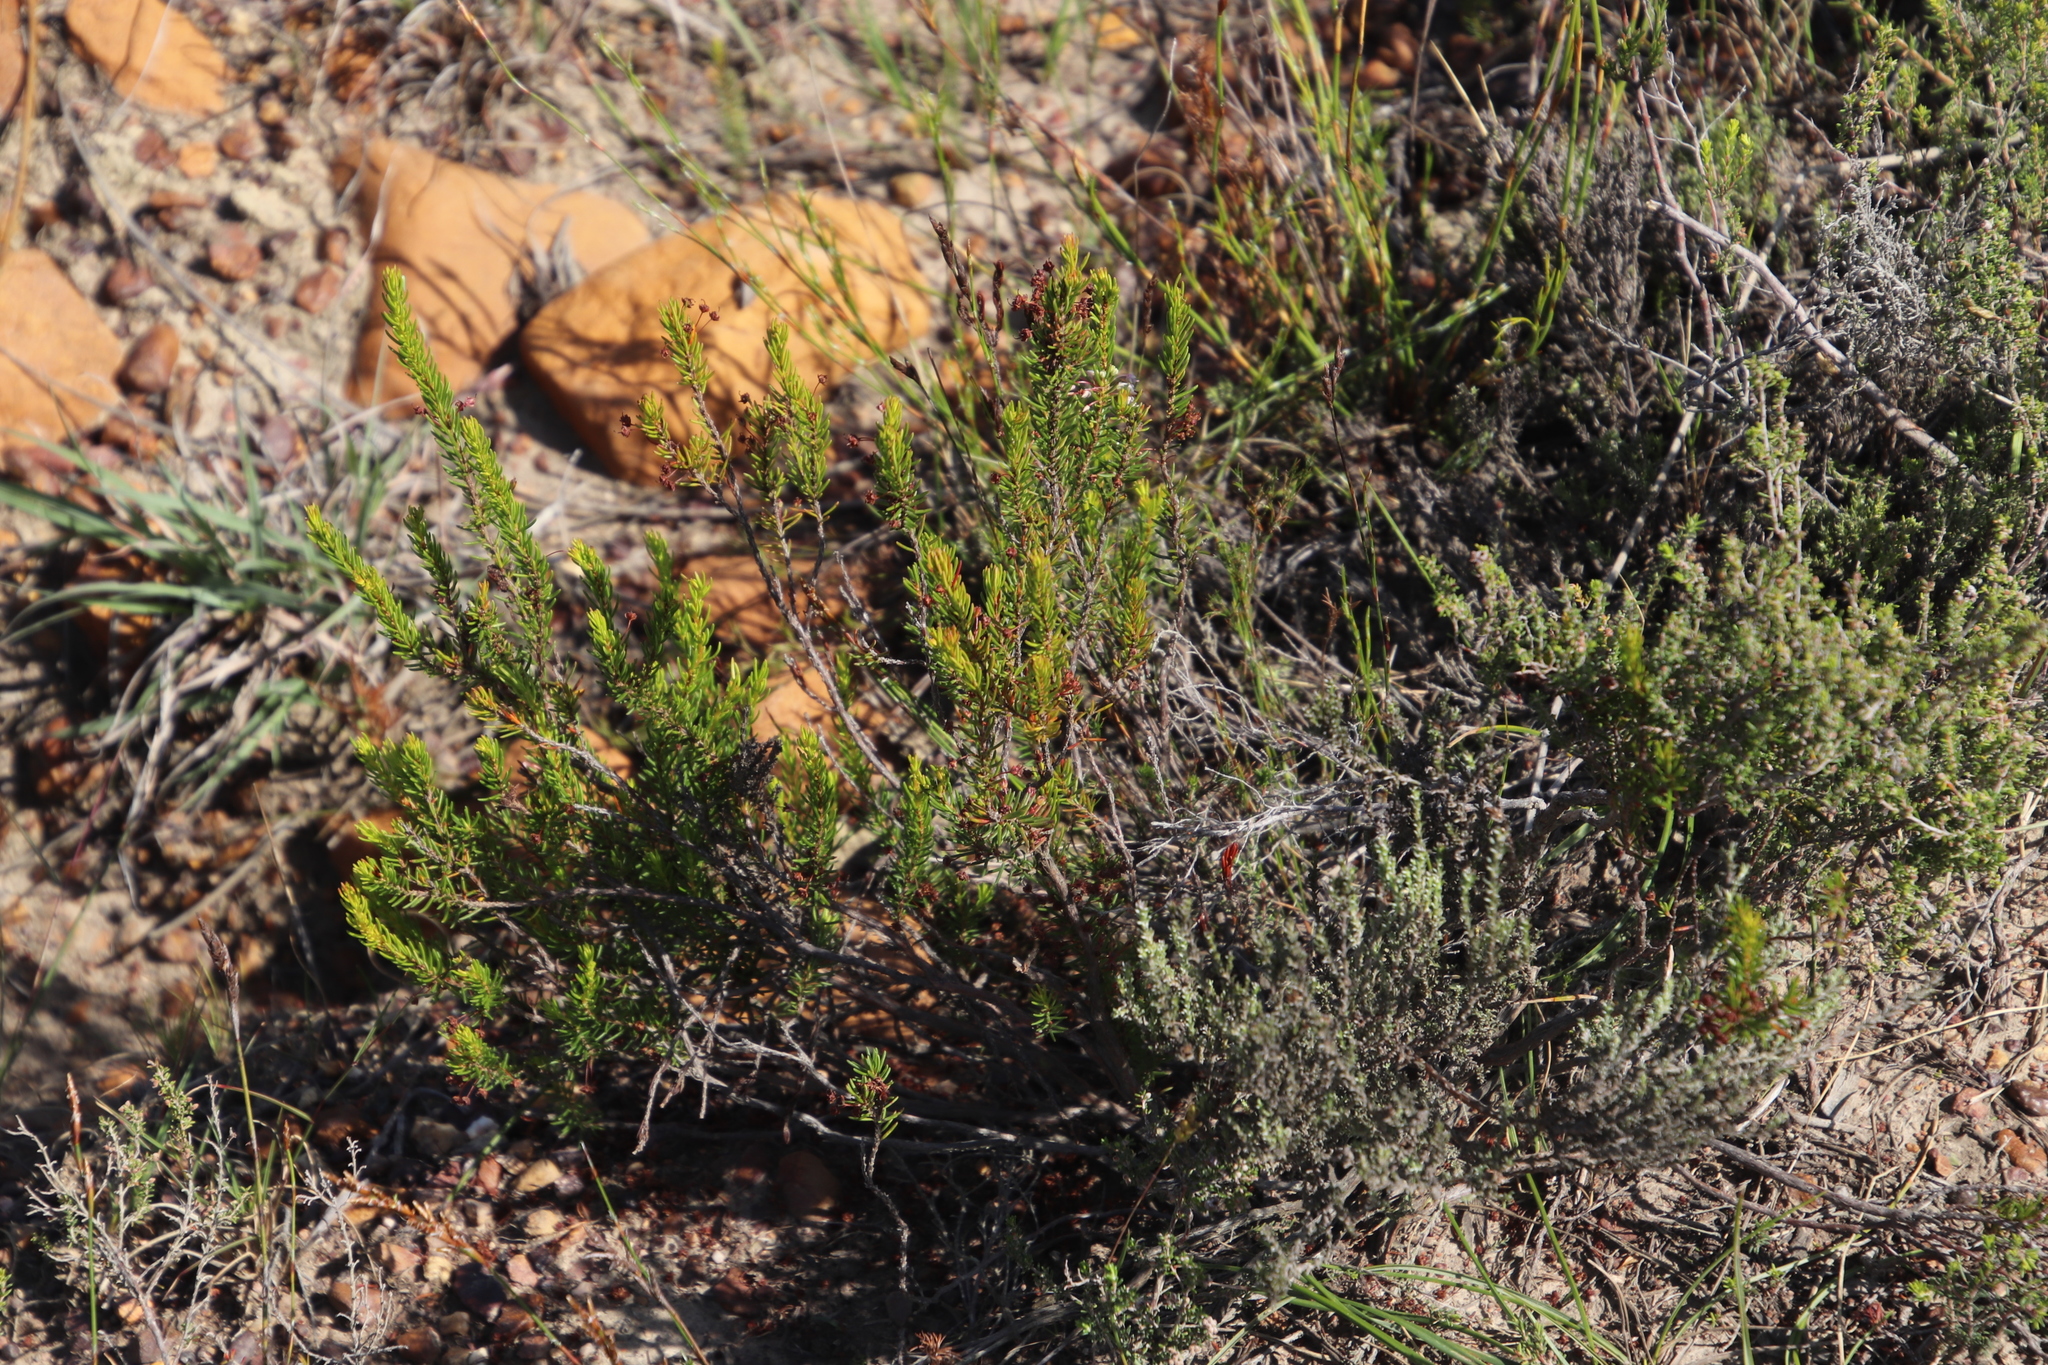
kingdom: Plantae
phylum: Tracheophyta
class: Magnoliopsida
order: Ericales
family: Ericaceae
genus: Erica
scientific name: Erica rubiginosa
